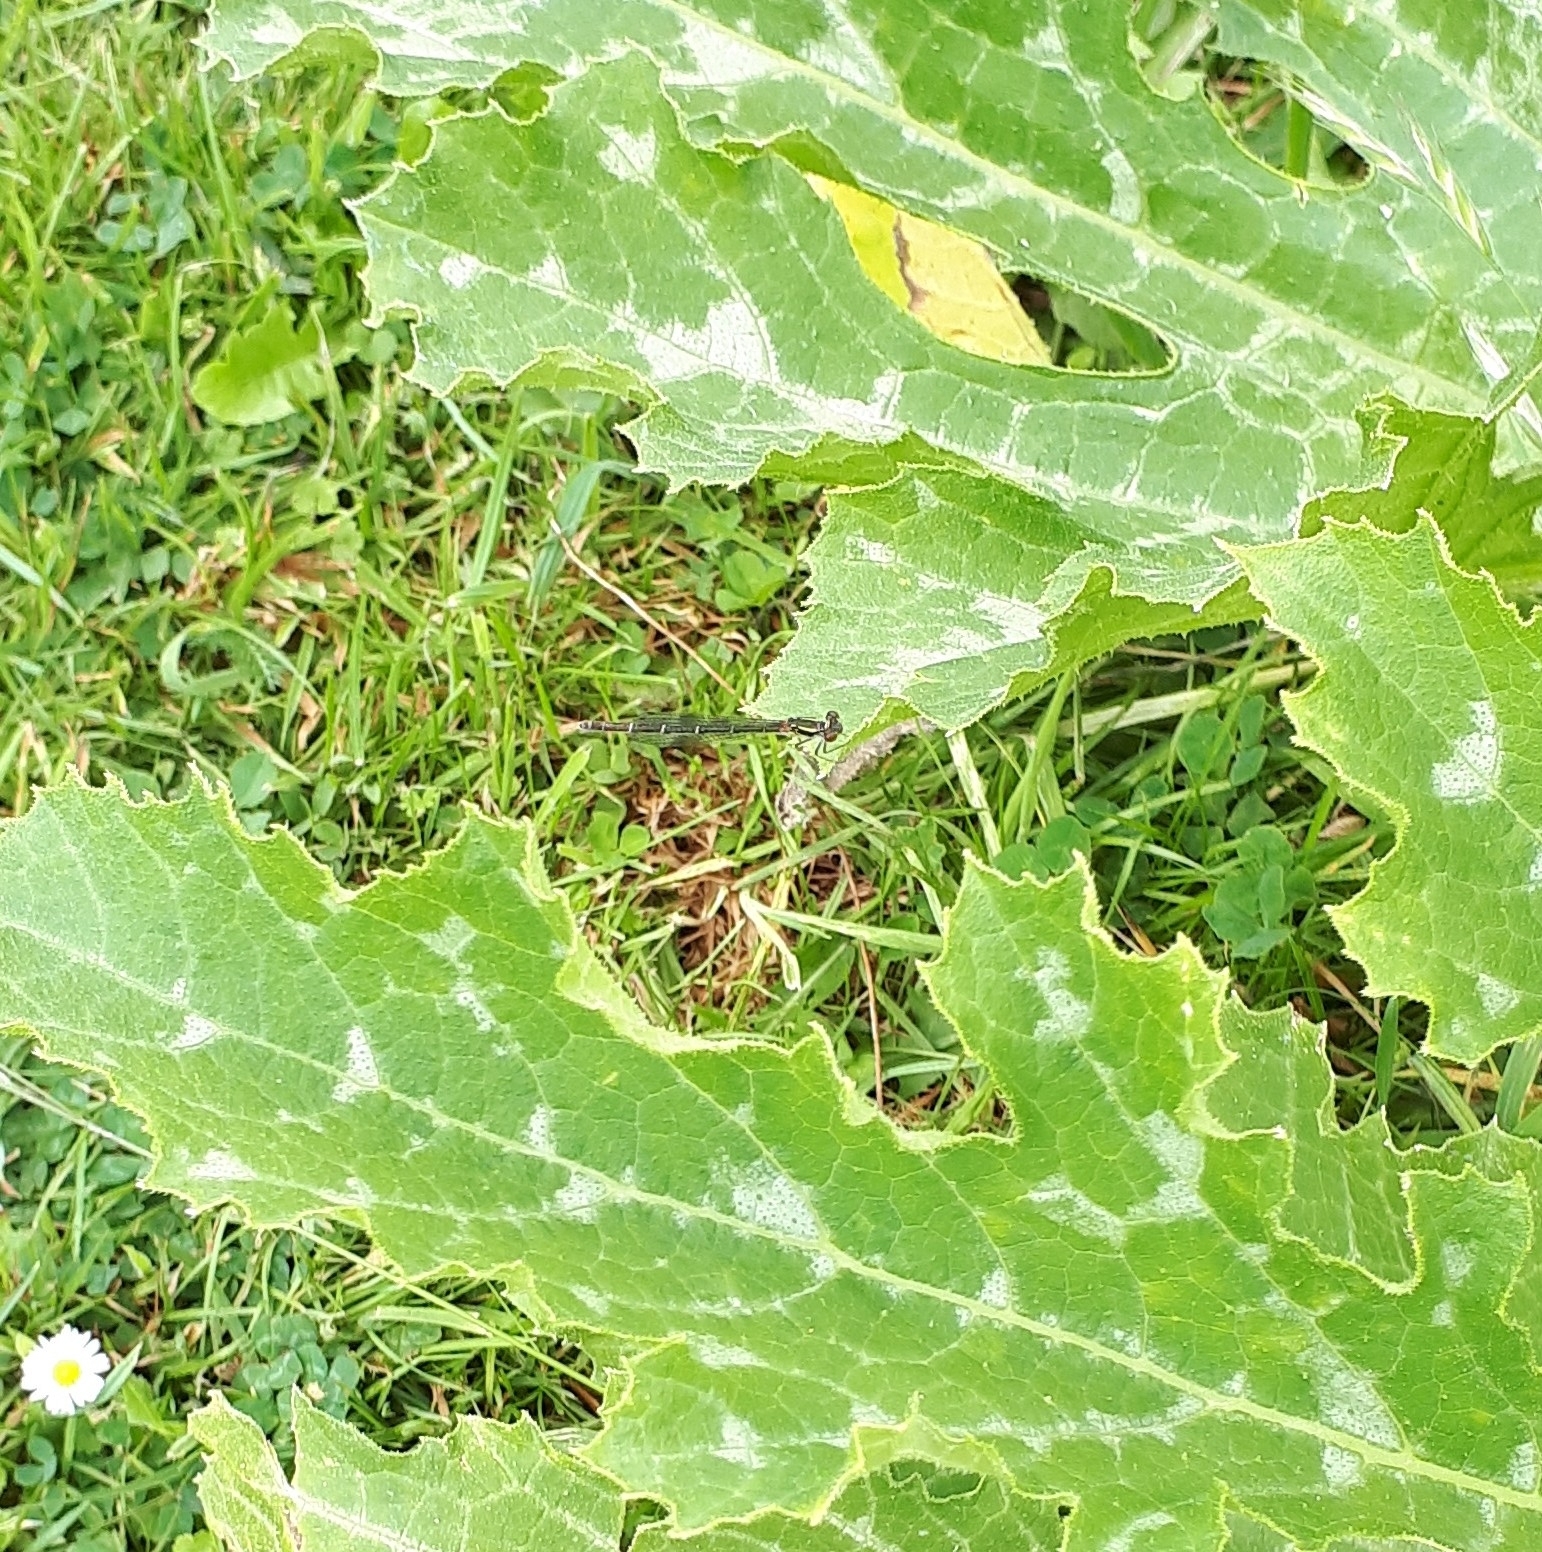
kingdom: Animalia
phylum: Arthropoda
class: Insecta
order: Odonata
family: Coenagrionidae
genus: Xanthocnemis
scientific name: Xanthocnemis zealandica
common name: Common redcoat damselfly
